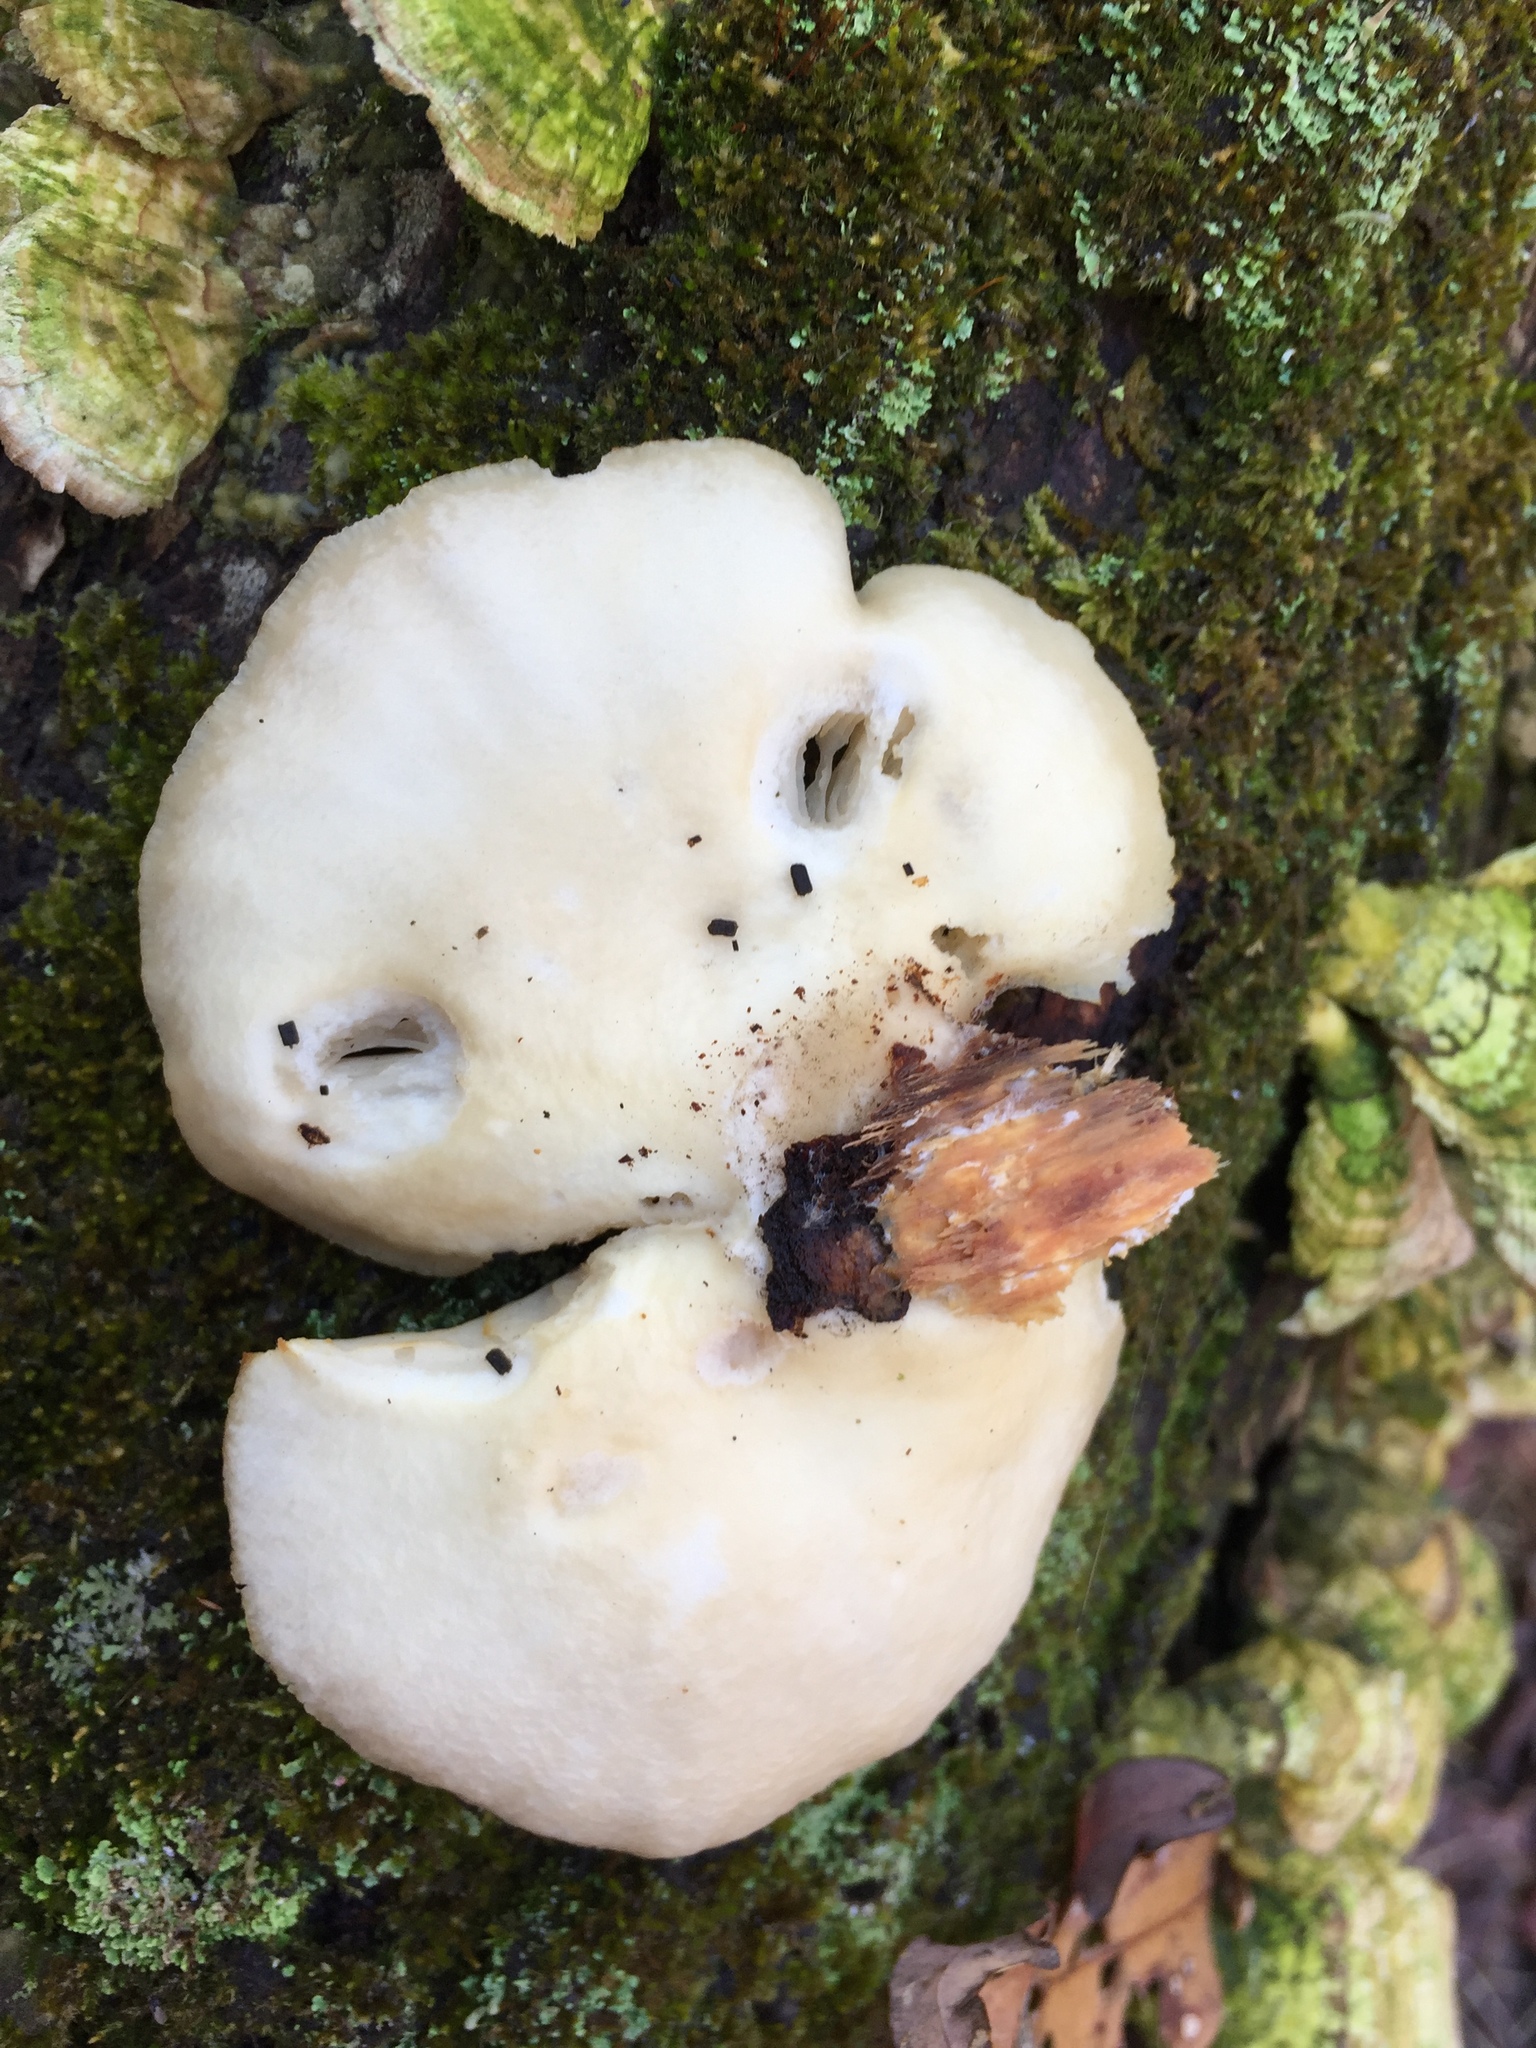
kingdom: Fungi
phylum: Basidiomycota
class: Agaricomycetes
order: Agaricales
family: Pleurotaceae
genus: Pleurotus
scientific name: Pleurotus ostreatus
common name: Oyster mushroom
